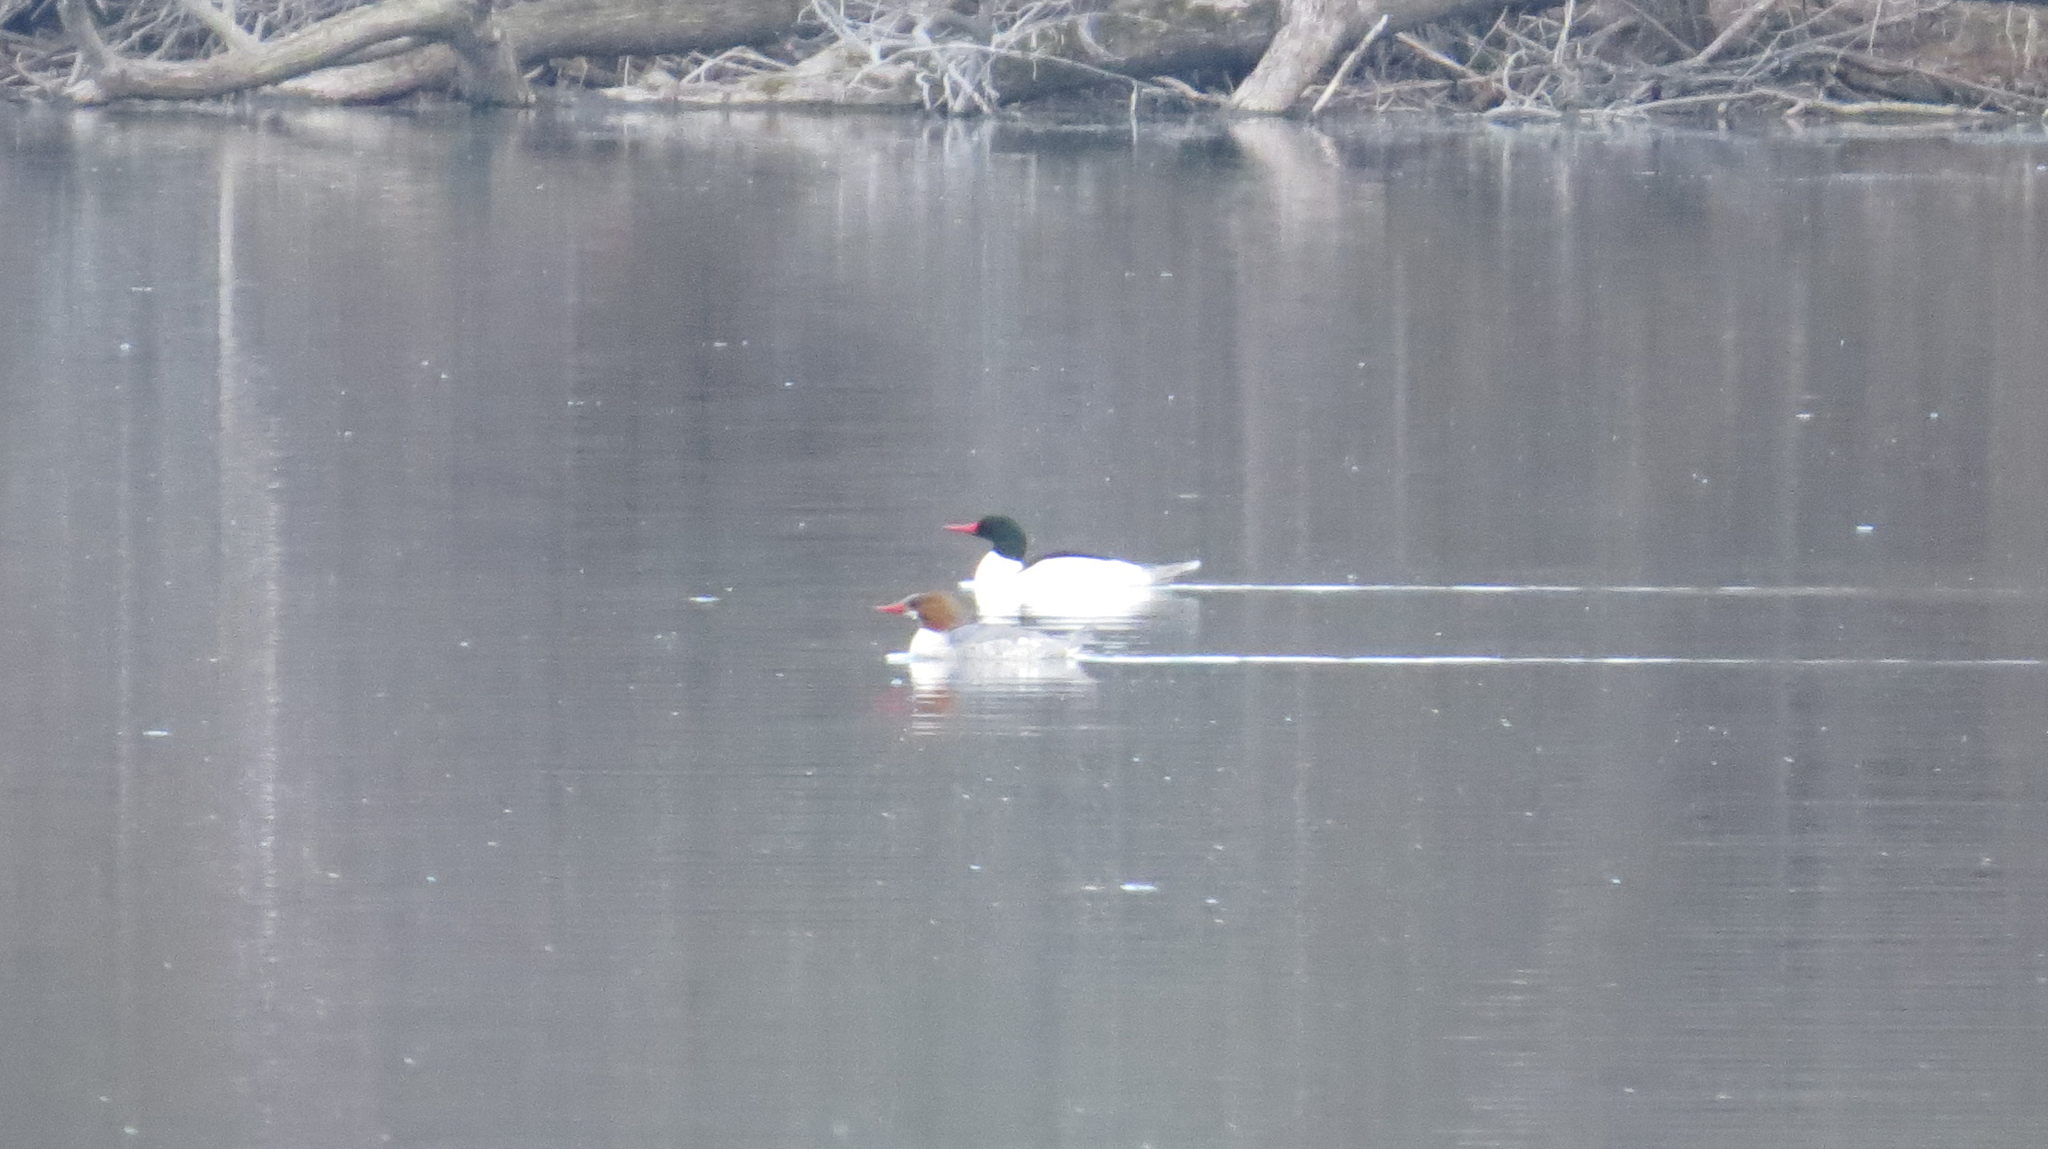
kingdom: Animalia
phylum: Chordata
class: Aves
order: Anseriformes
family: Anatidae
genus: Mergus
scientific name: Mergus merganser
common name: Common merganser
